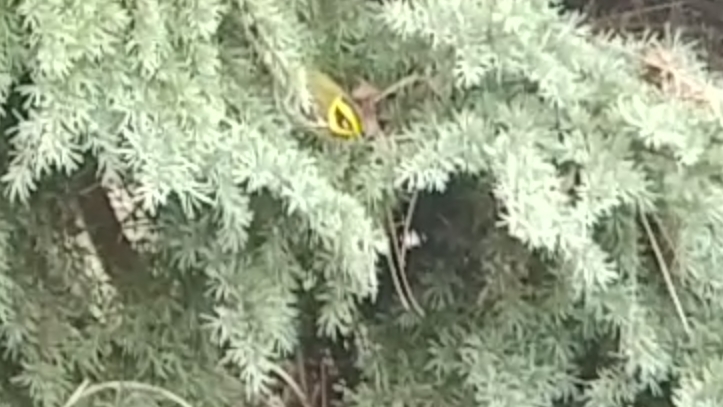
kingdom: Animalia
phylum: Chordata
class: Aves
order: Passeriformes
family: Parulidae
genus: Setophaga
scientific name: Setophaga townsendi
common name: Townsend's warbler
